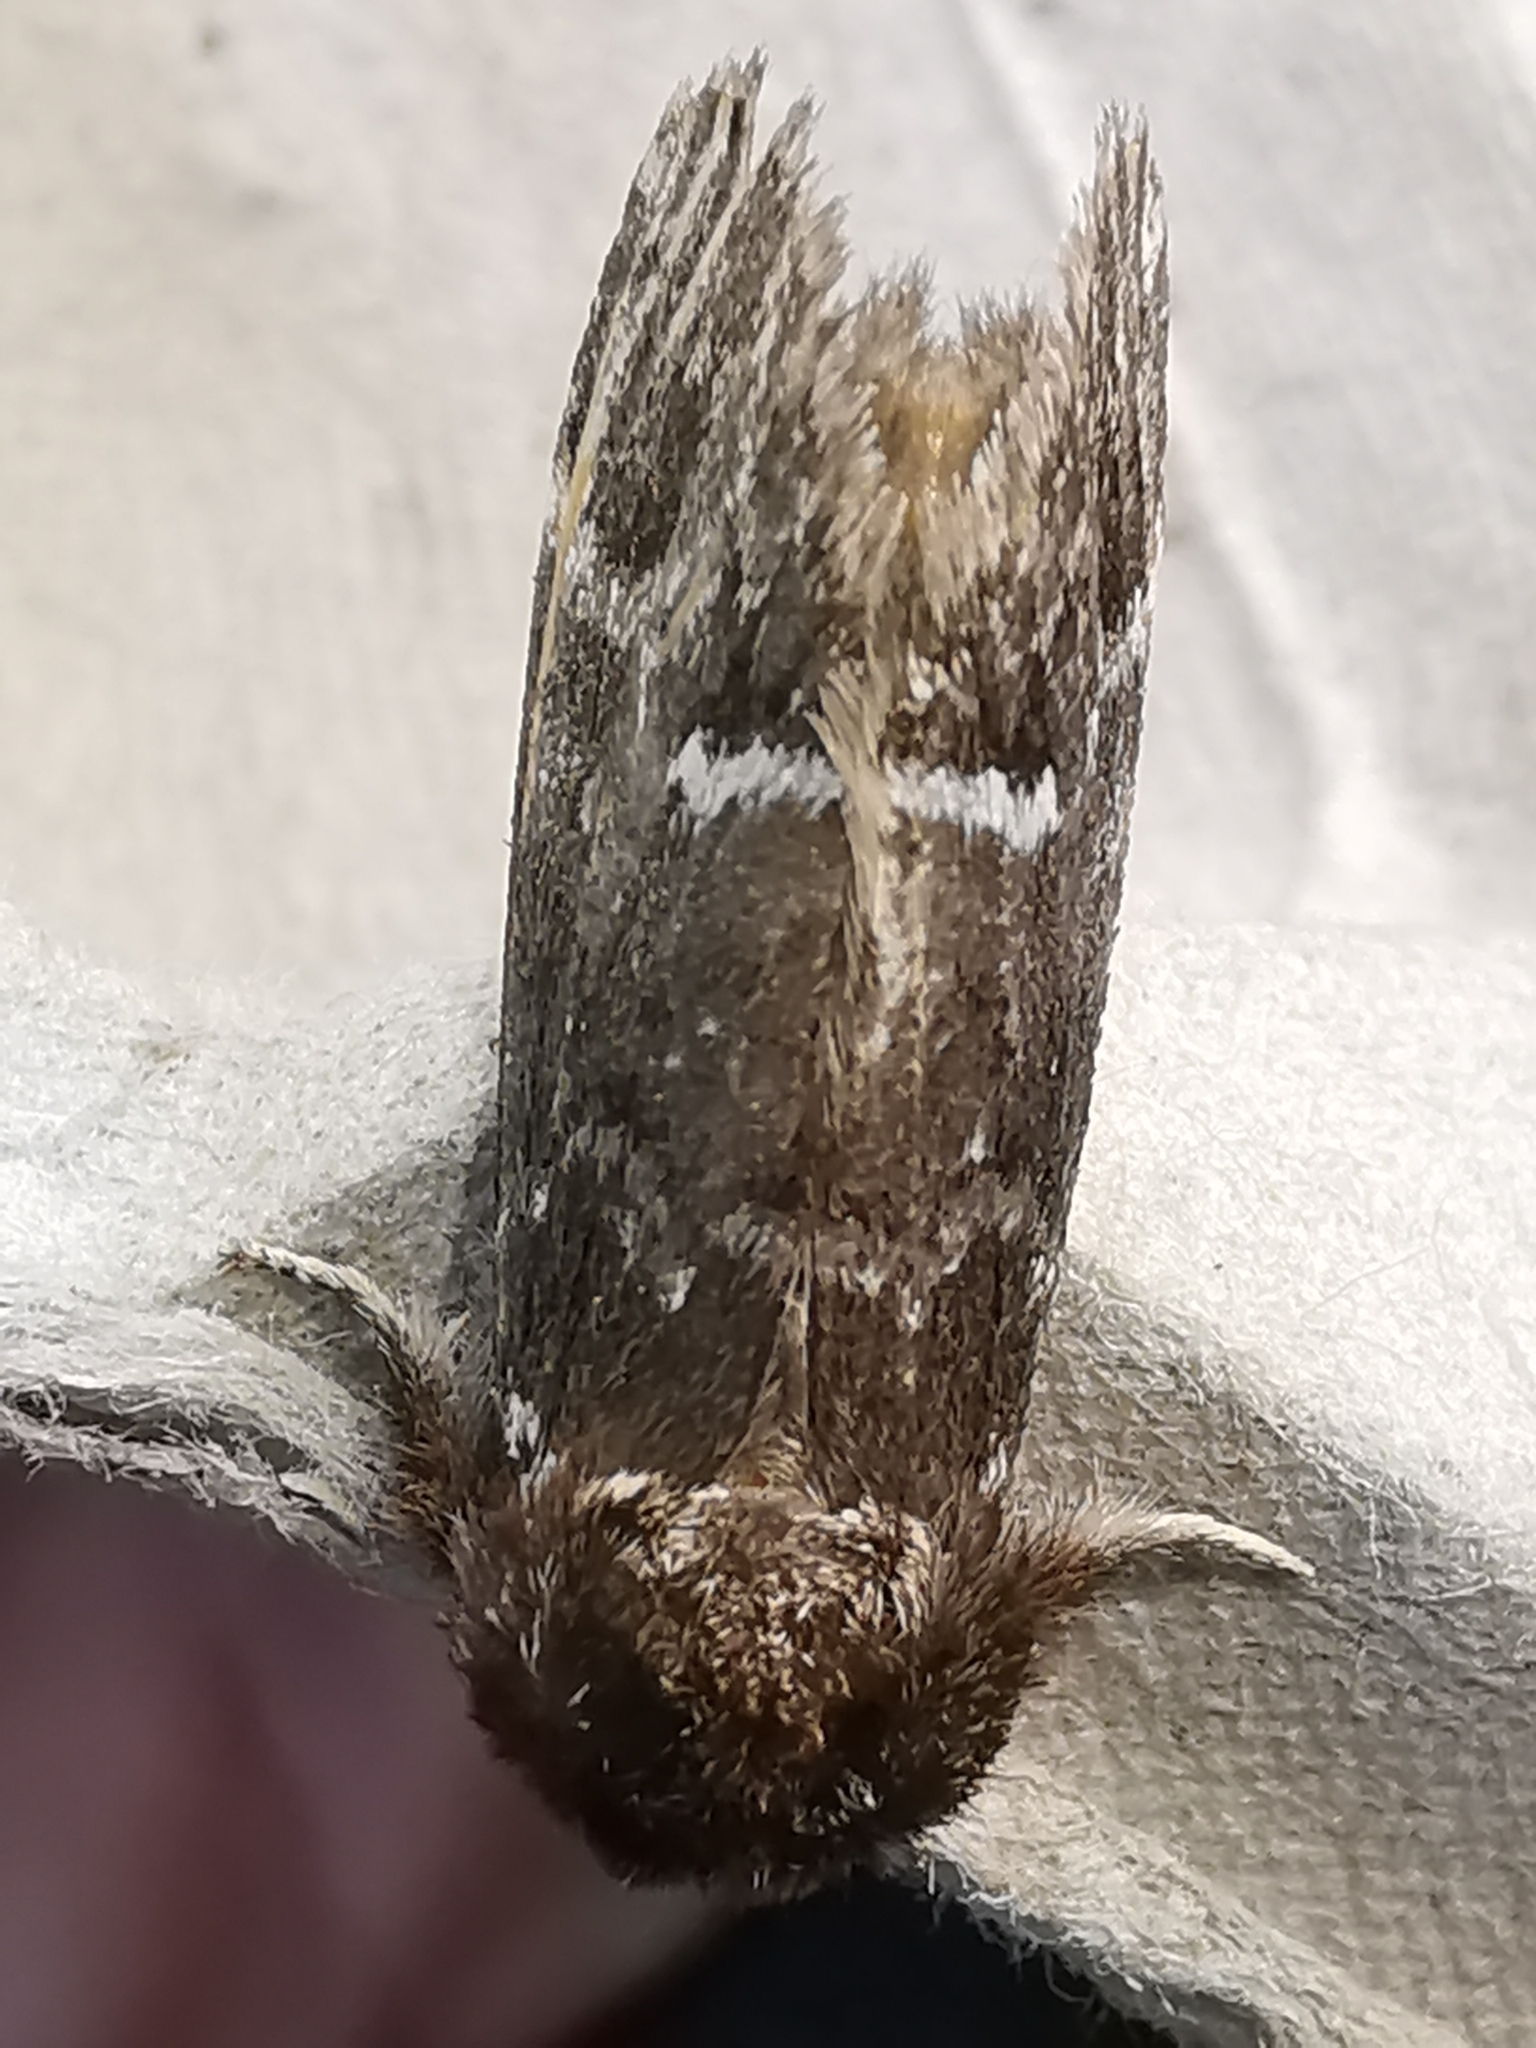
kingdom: Animalia
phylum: Arthropoda
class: Insecta
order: Lepidoptera
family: Notodontidae
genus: Drymonia
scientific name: Drymonia dodonaea
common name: Marbled brown
